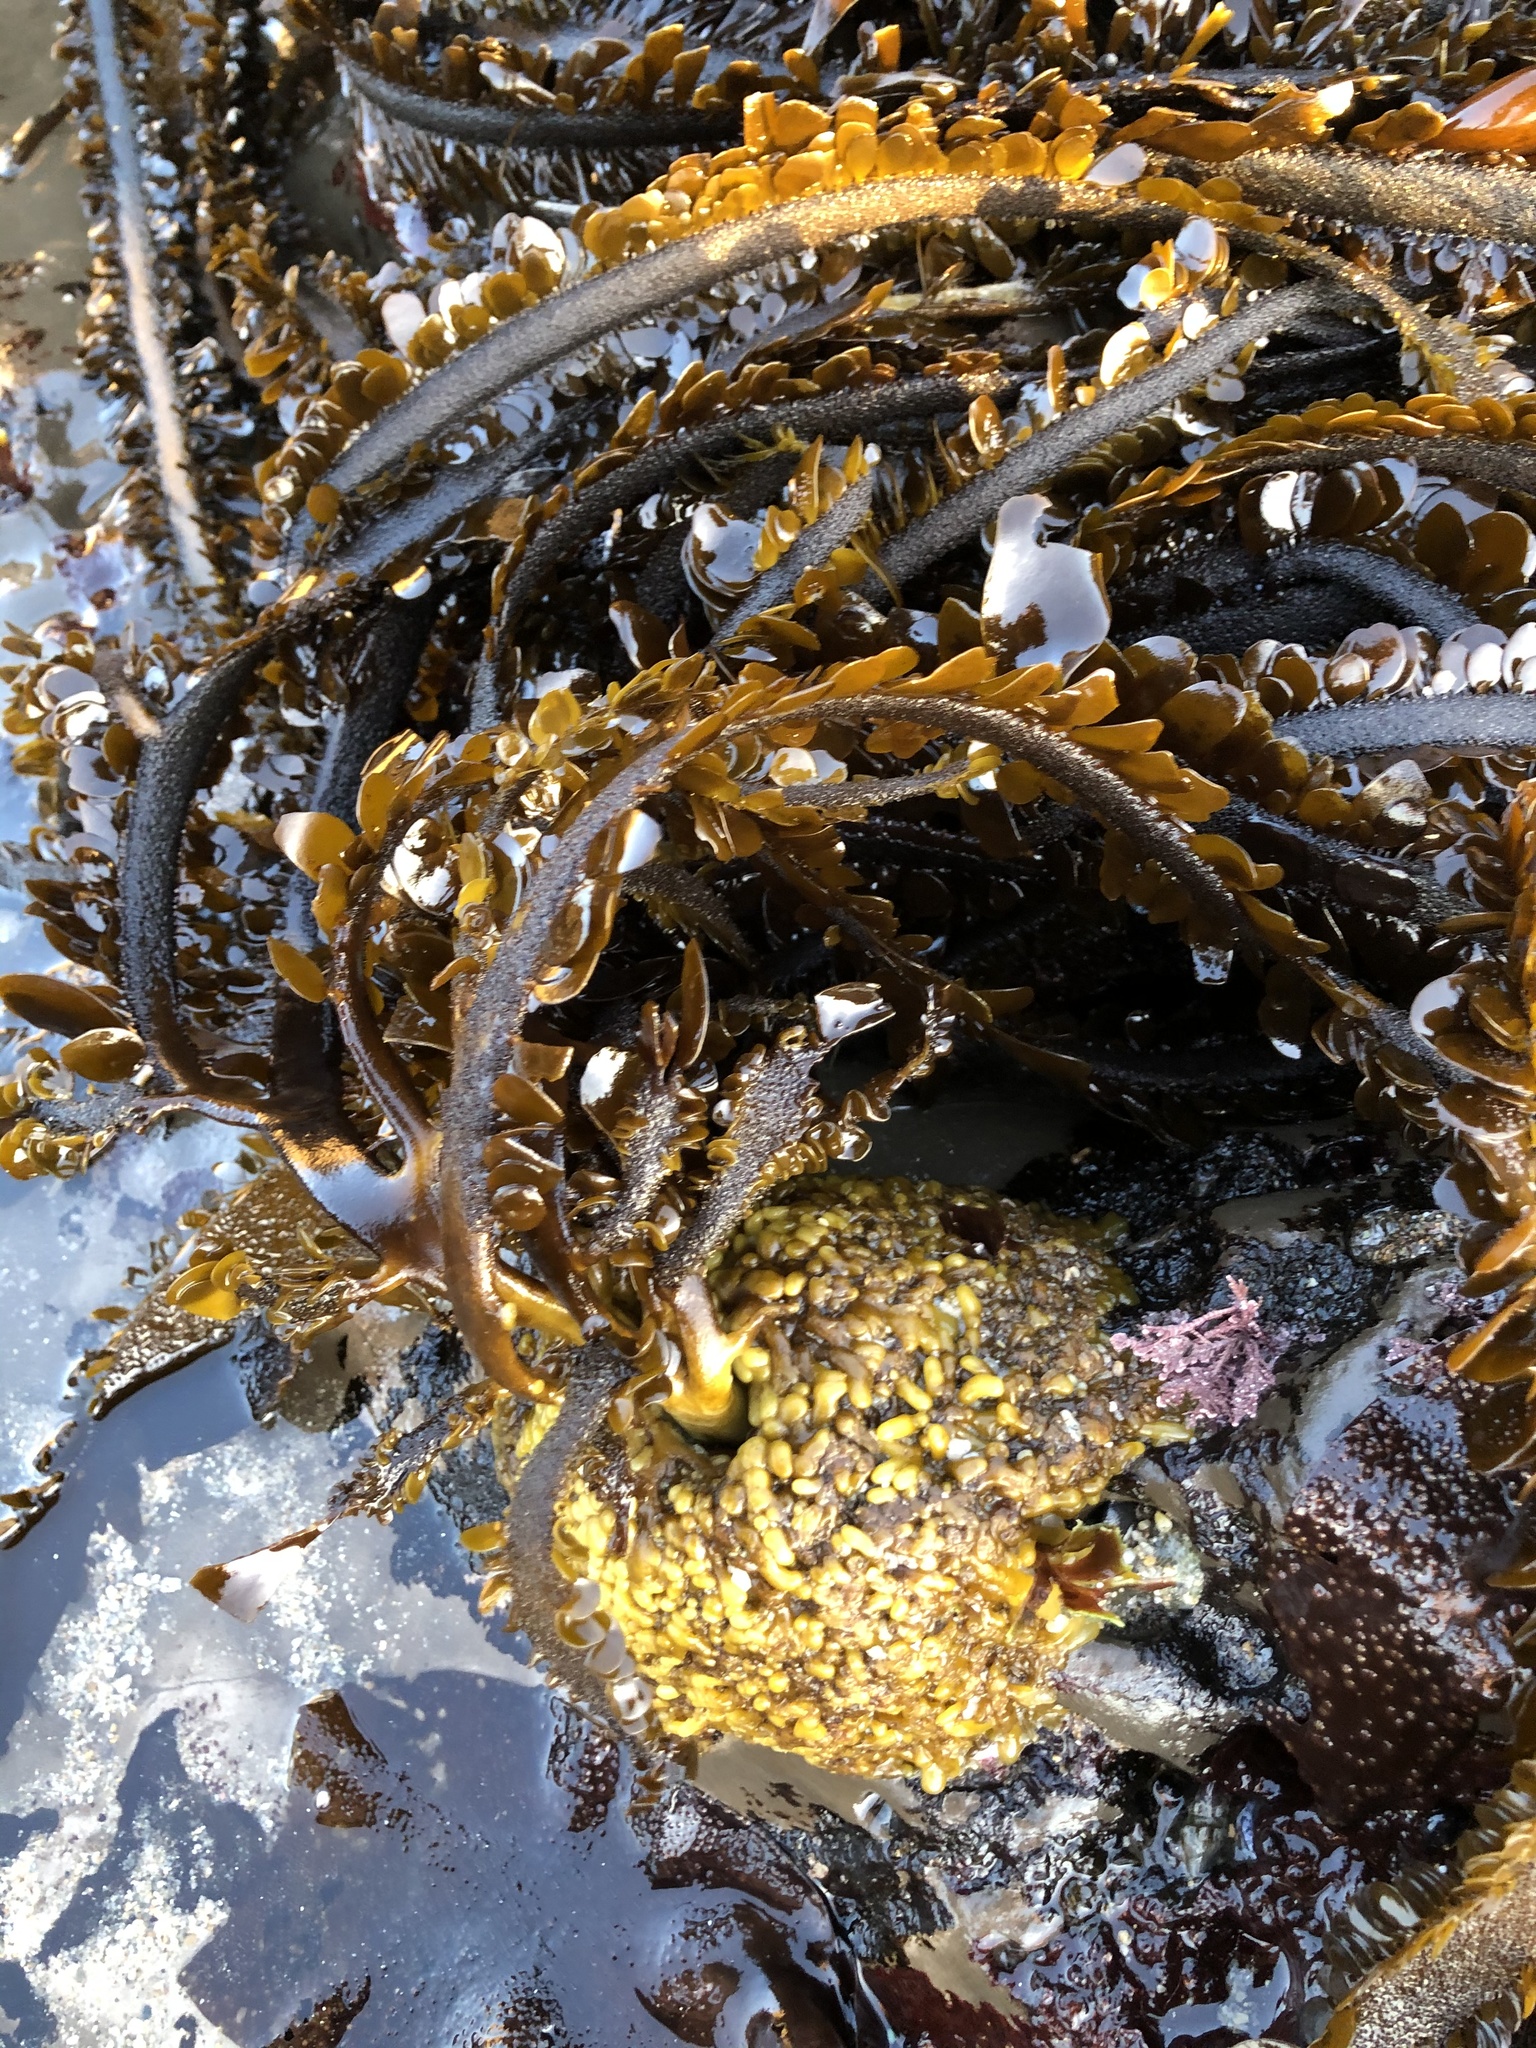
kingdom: Chromista
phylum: Ochrophyta
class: Phaeophyceae
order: Laminariales
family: Lessoniaceae
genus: Egregia
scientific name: Egregia menziesii
